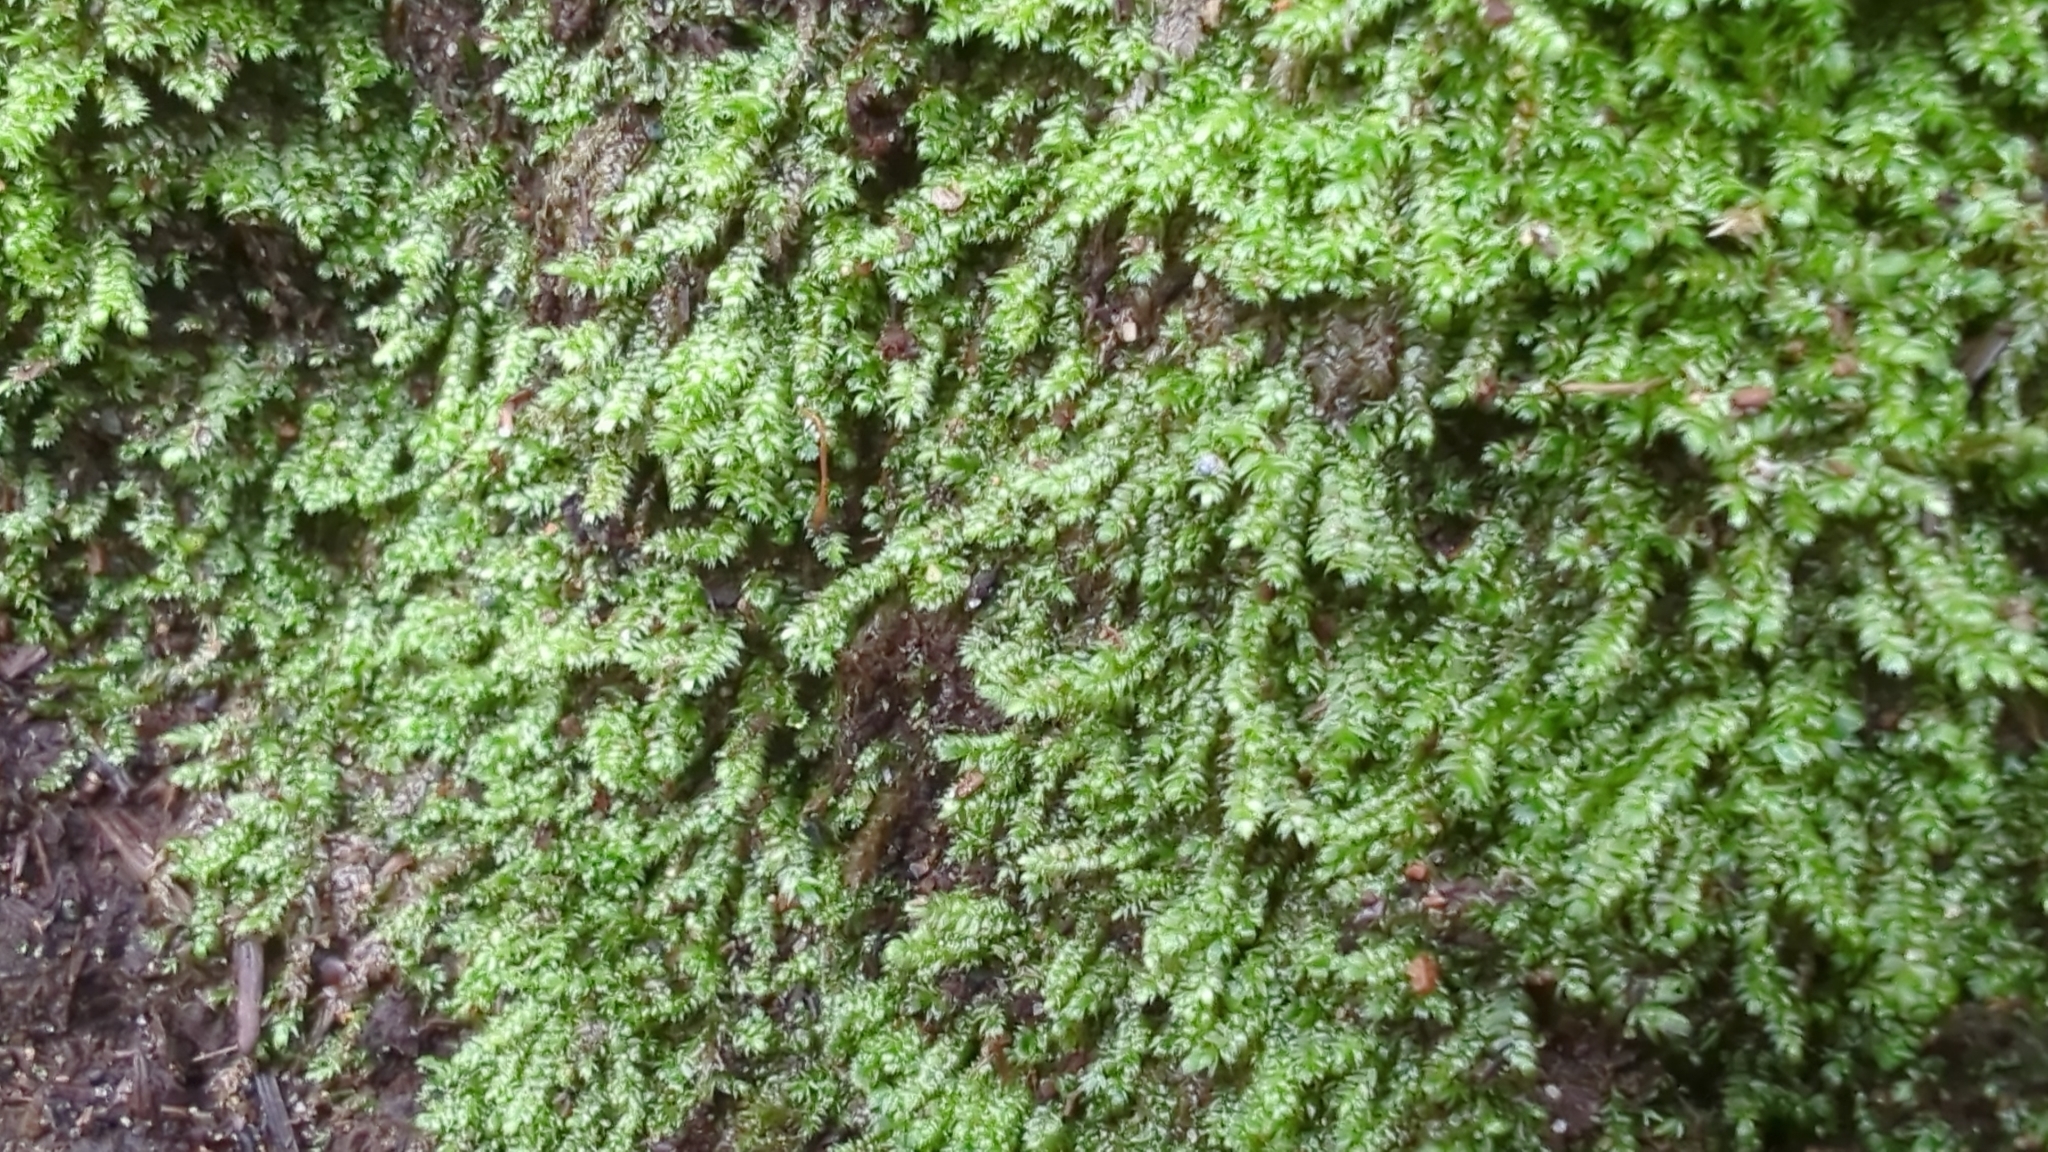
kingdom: Plantae
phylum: Bryophyta
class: Bryopsida
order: Hypnales
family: Plagiotheciaceae
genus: Pseudotaxiphyllum
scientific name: Pseudotaxiphyllum elegans
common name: Elegant silk moss
